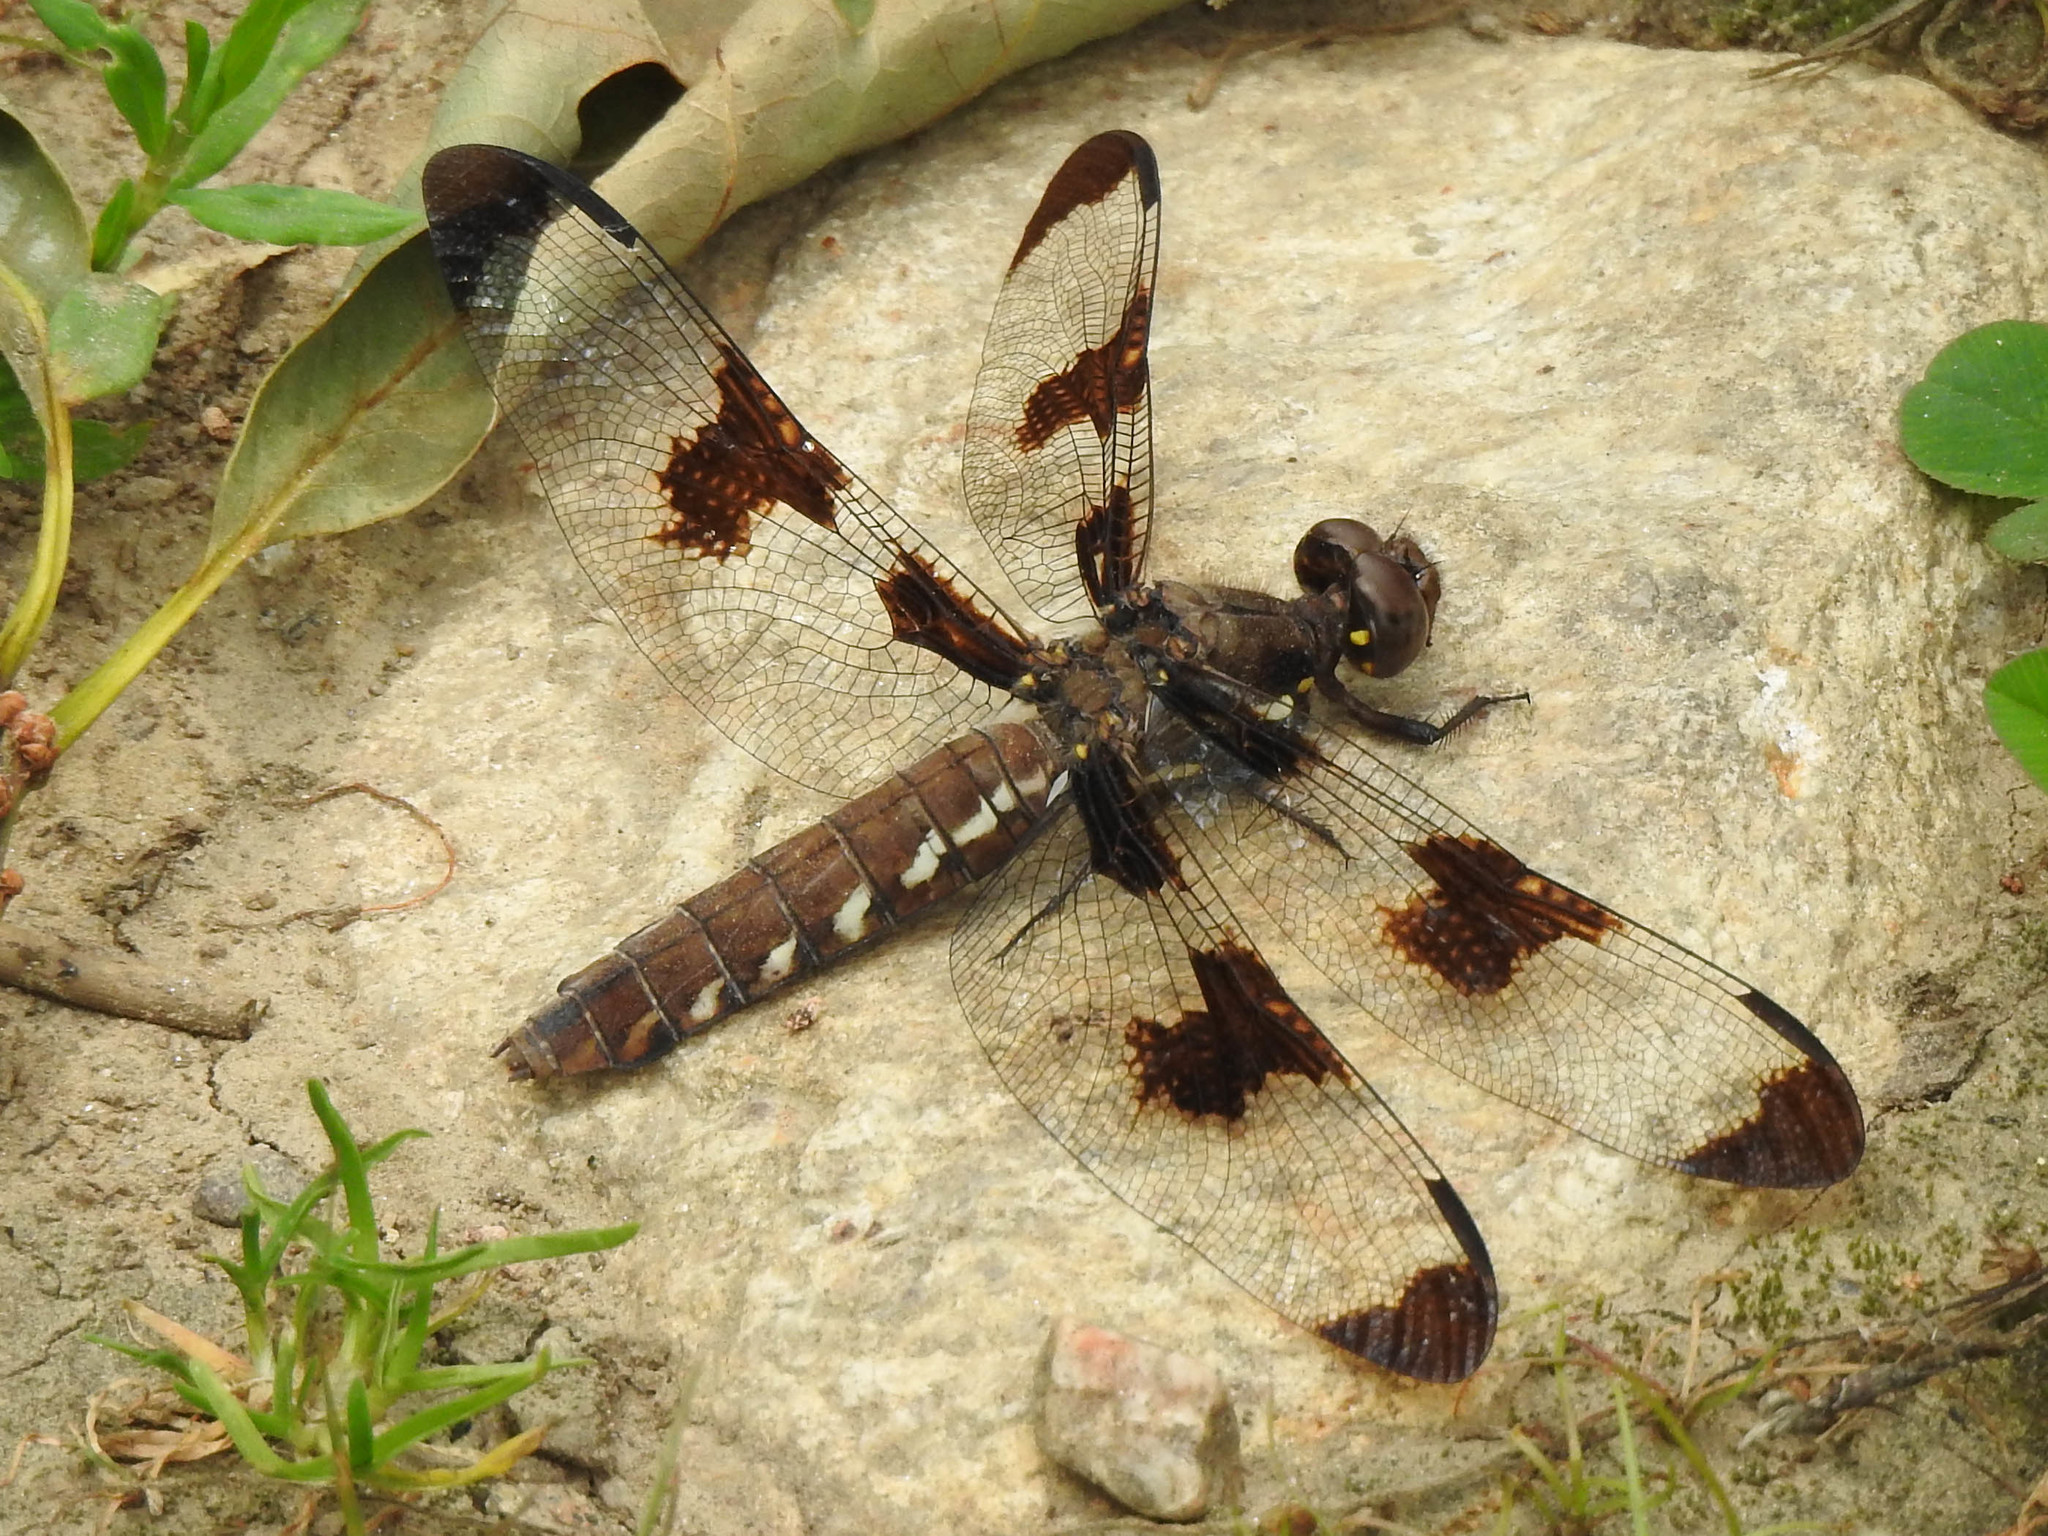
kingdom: Animalia
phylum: Arthropoda
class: Insecta
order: Odonata
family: Libellulidae
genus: Plathemis
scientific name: Plathemis lydia
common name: Common whitetail
